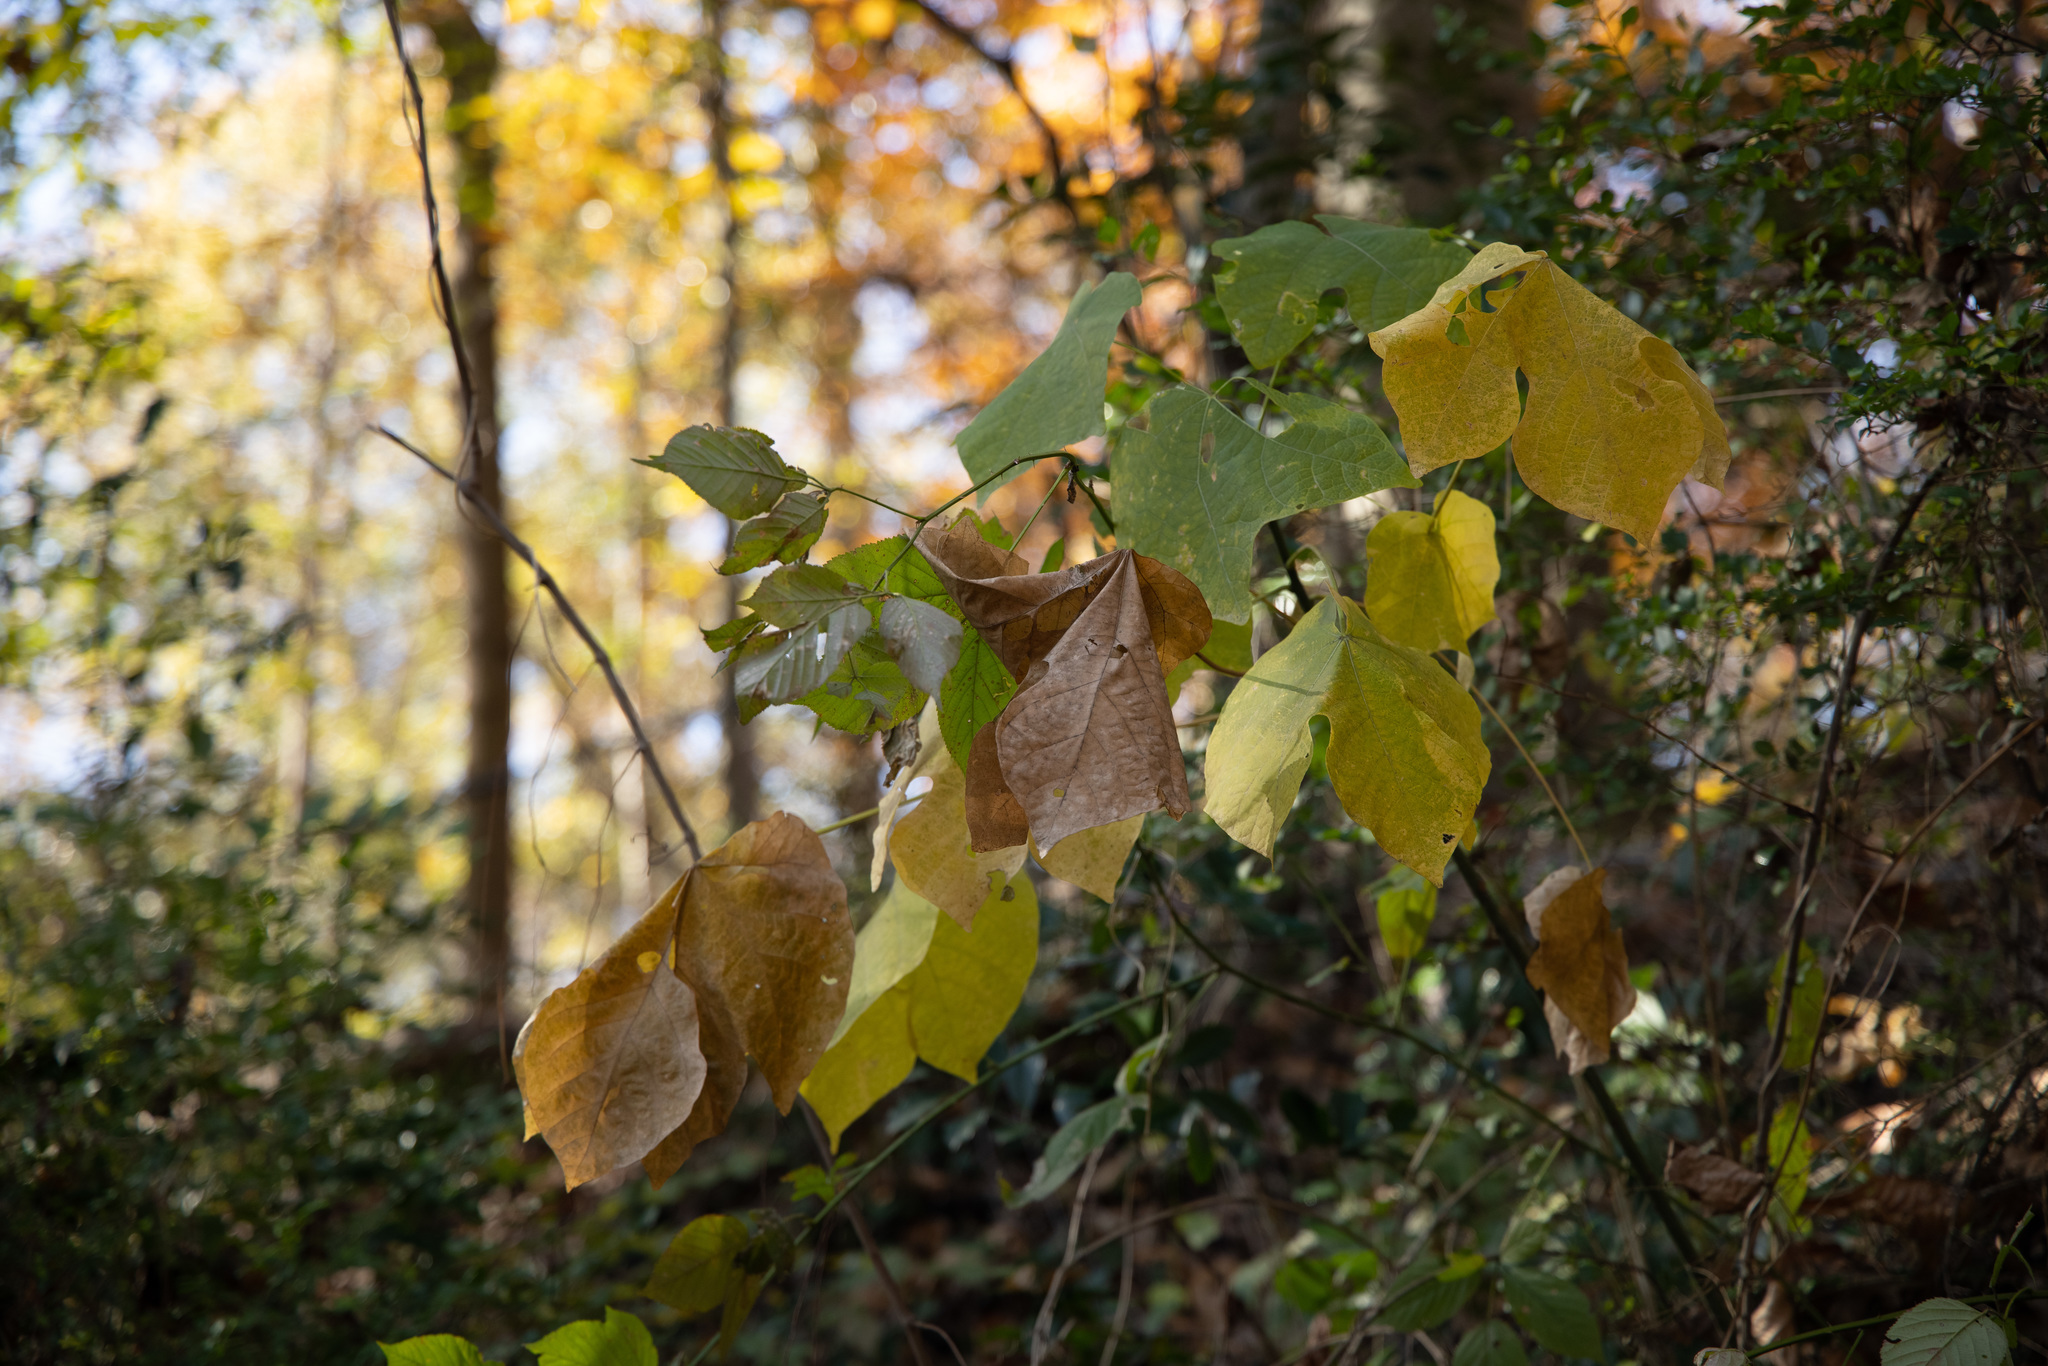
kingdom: Plantae
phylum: Tracheophyta
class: Magnoliopsida
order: Malvales
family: Malvaceae
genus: Firmiana
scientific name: Firmiana simplex
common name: Chinese parasoltree
